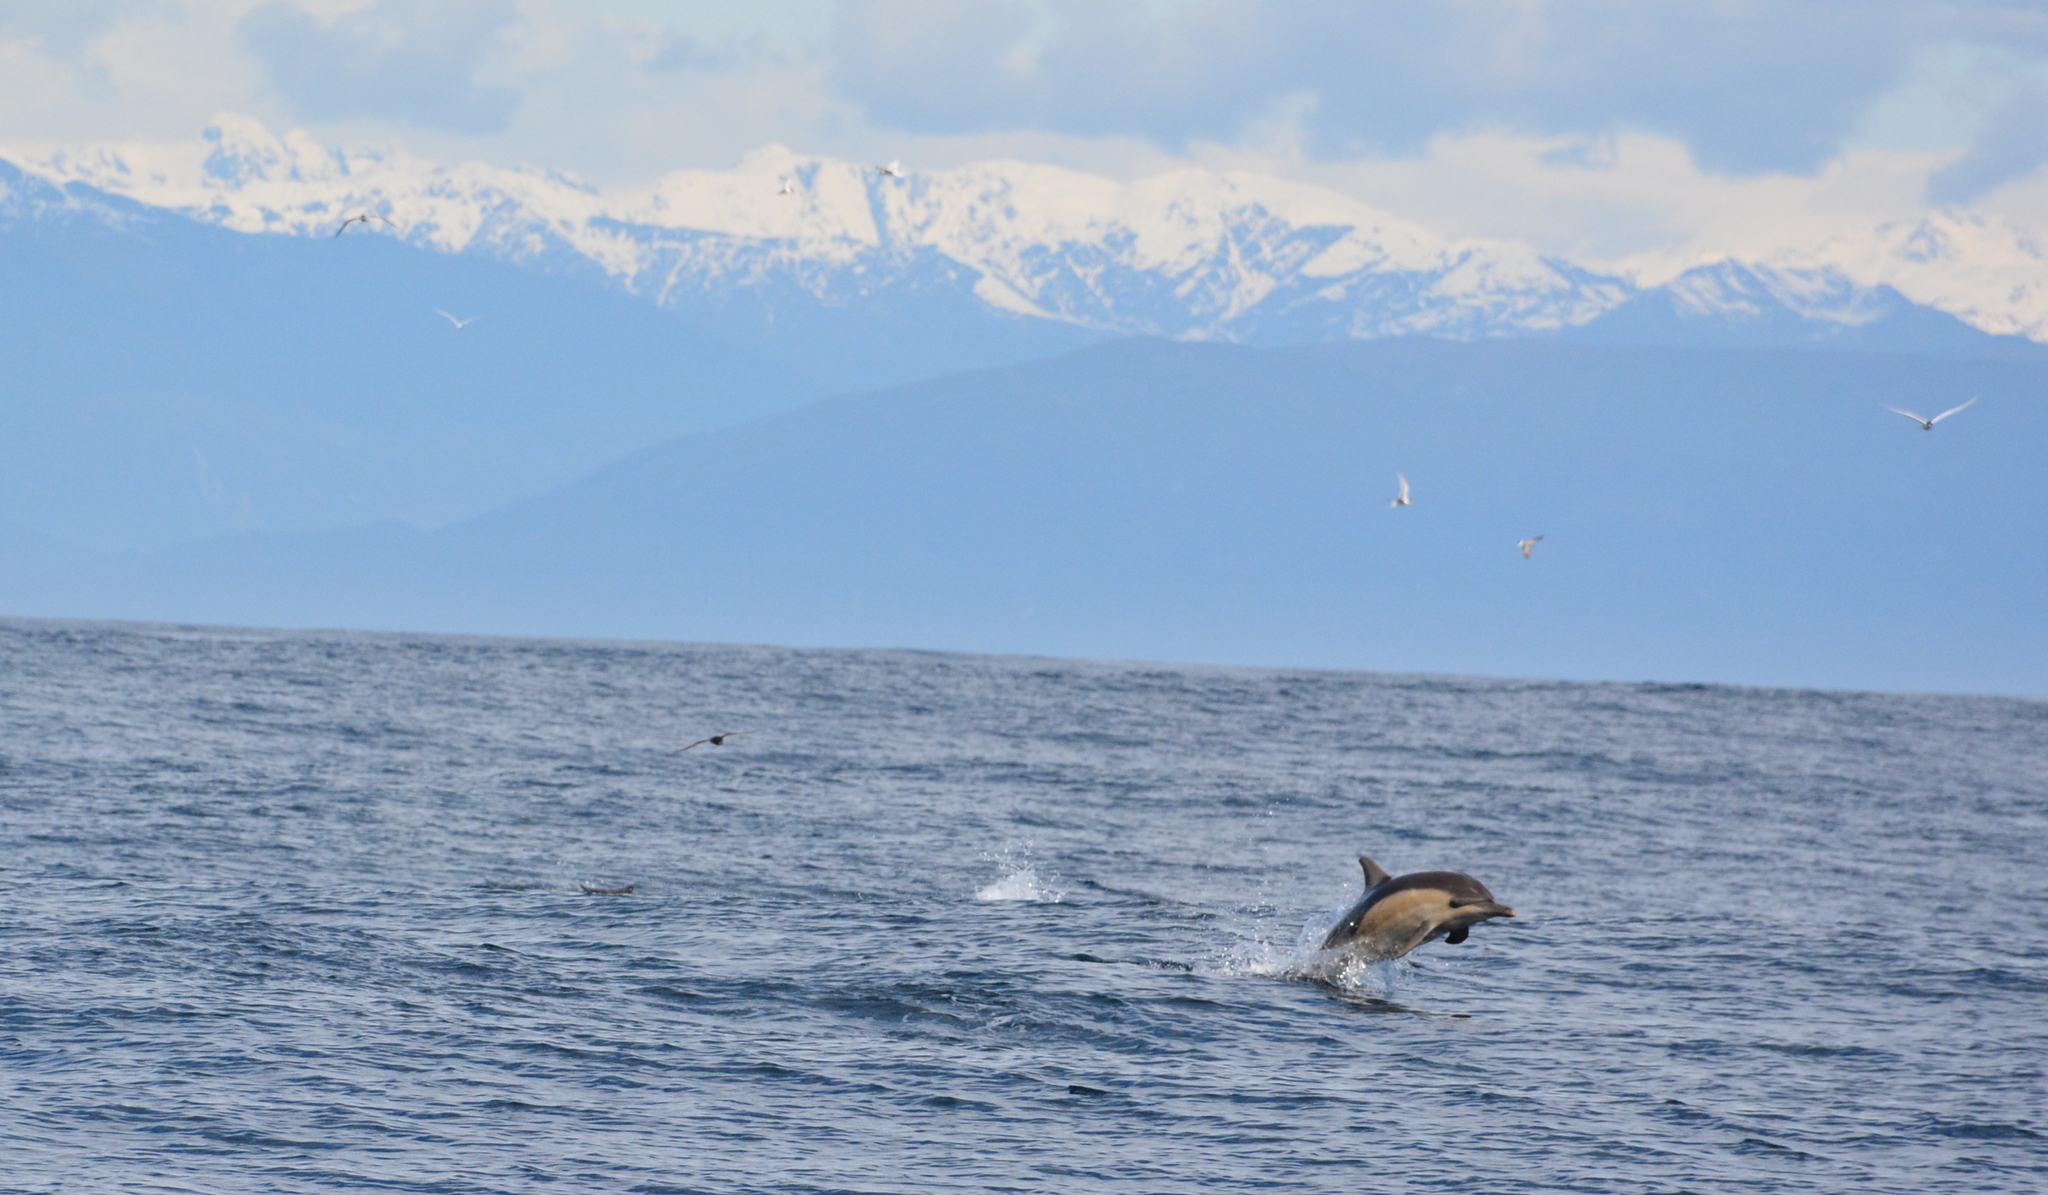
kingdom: Animalia
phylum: Chordata
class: Mammalia
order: Cetacea
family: Delphinidae
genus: Delphinus
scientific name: Delphinus delphis
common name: Common dolphin
